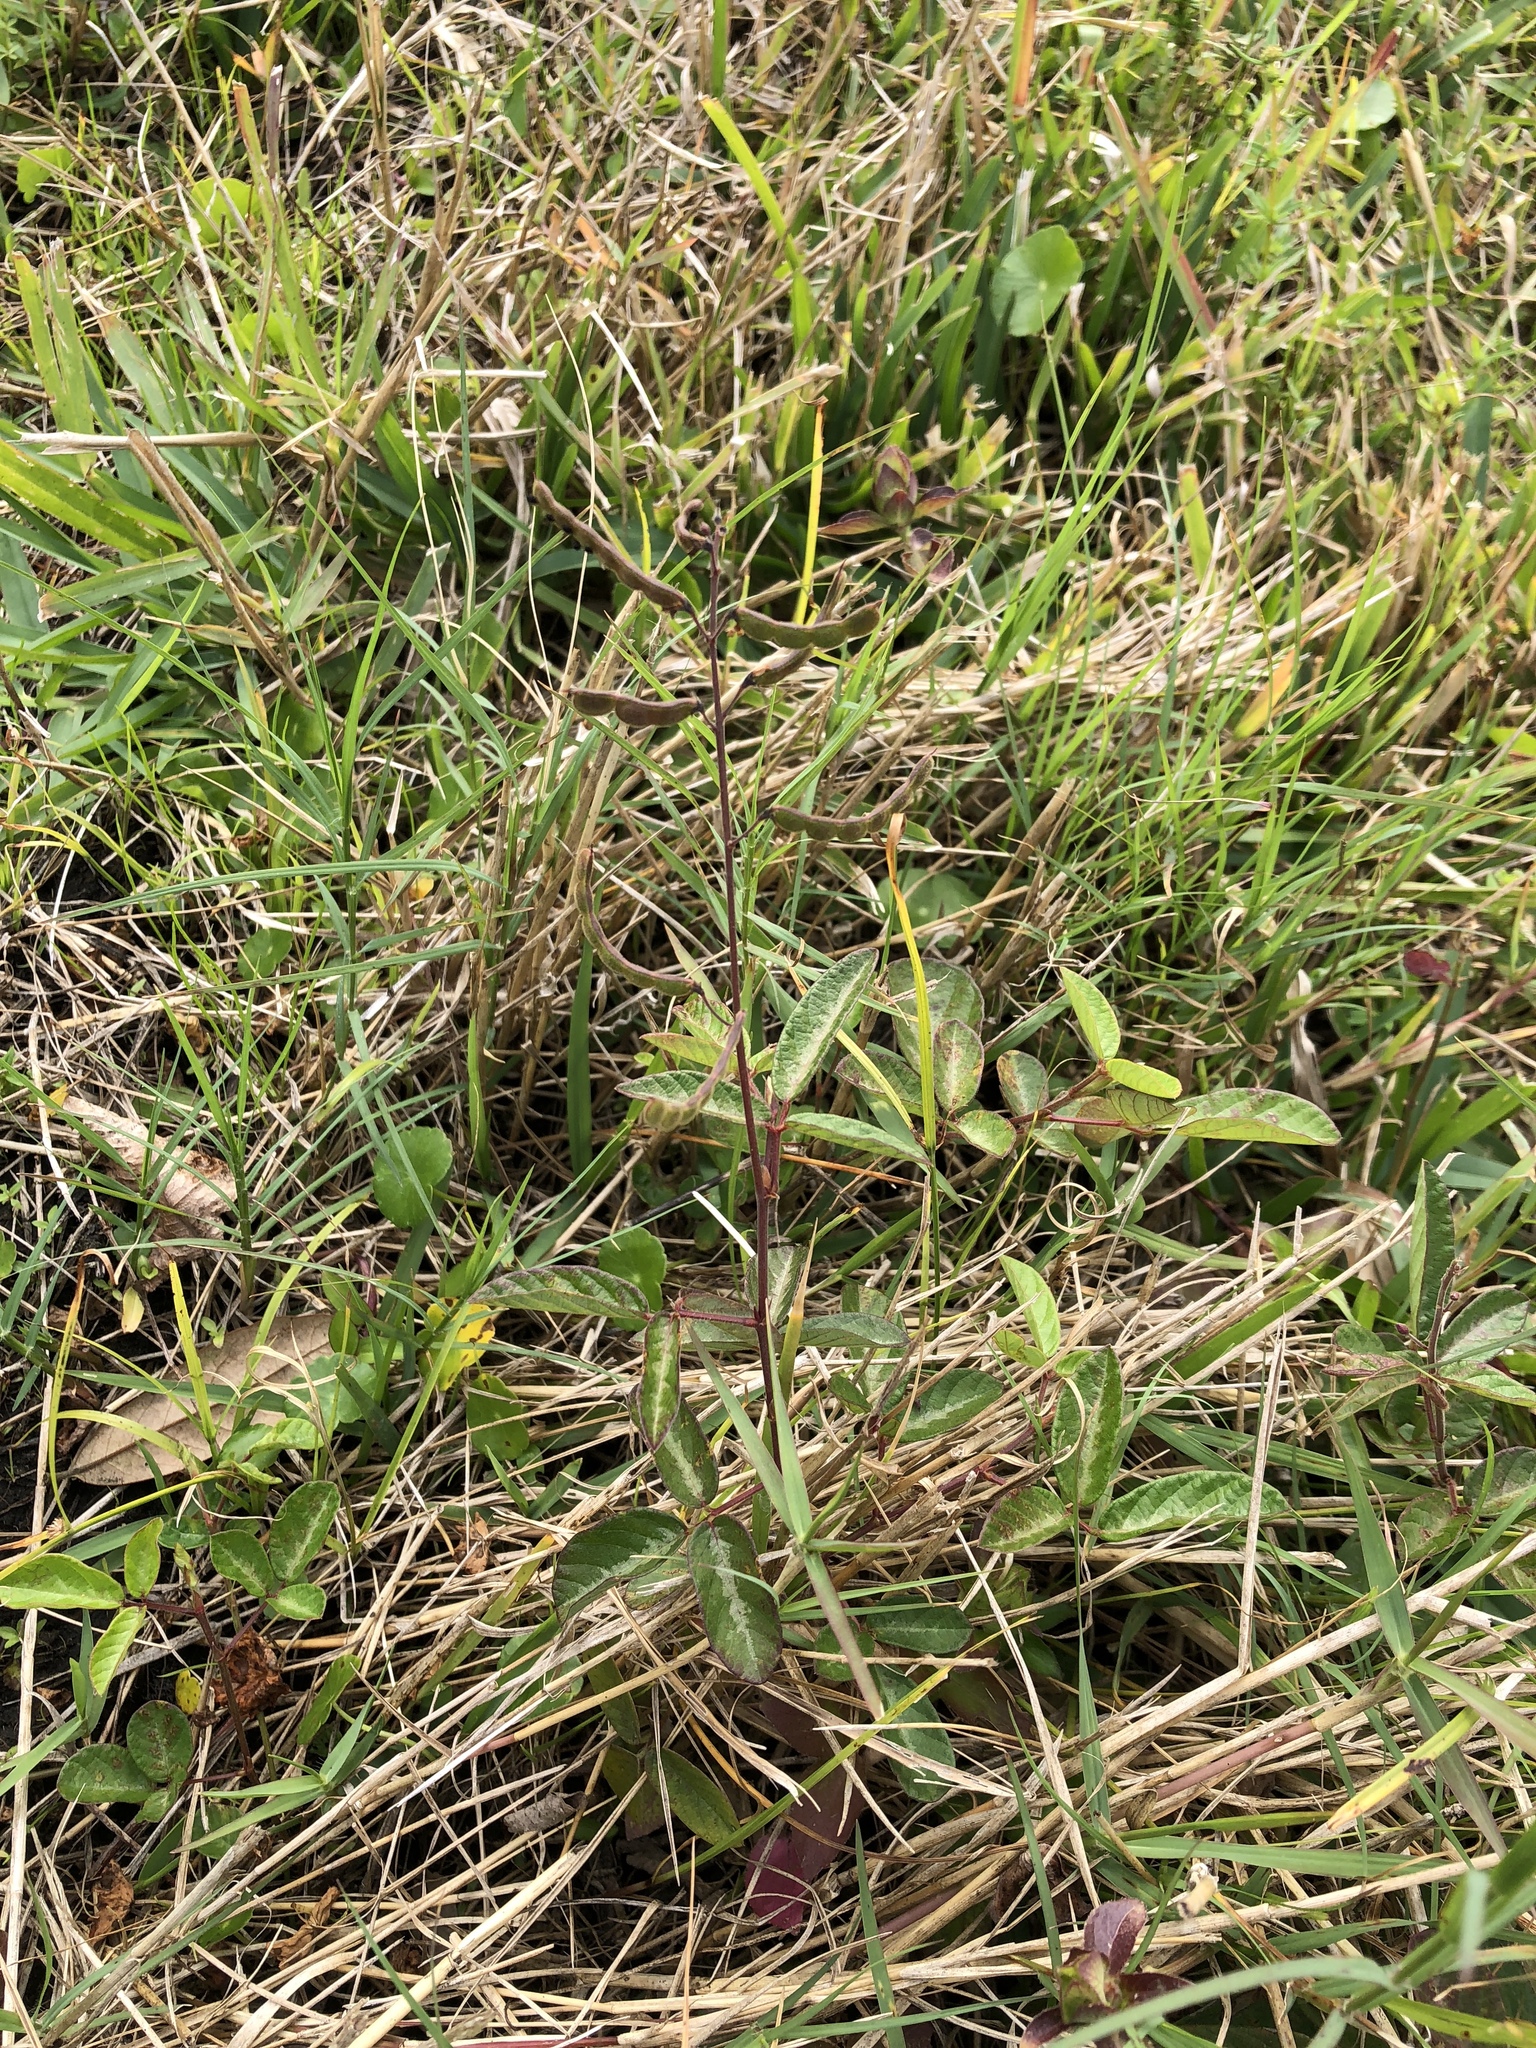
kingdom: Plantae
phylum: Tracheophyta
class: Magnoliopsida
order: Fabales
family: Fabaceae
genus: Desmodium
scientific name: Desmodium incanum
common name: Tickclover
